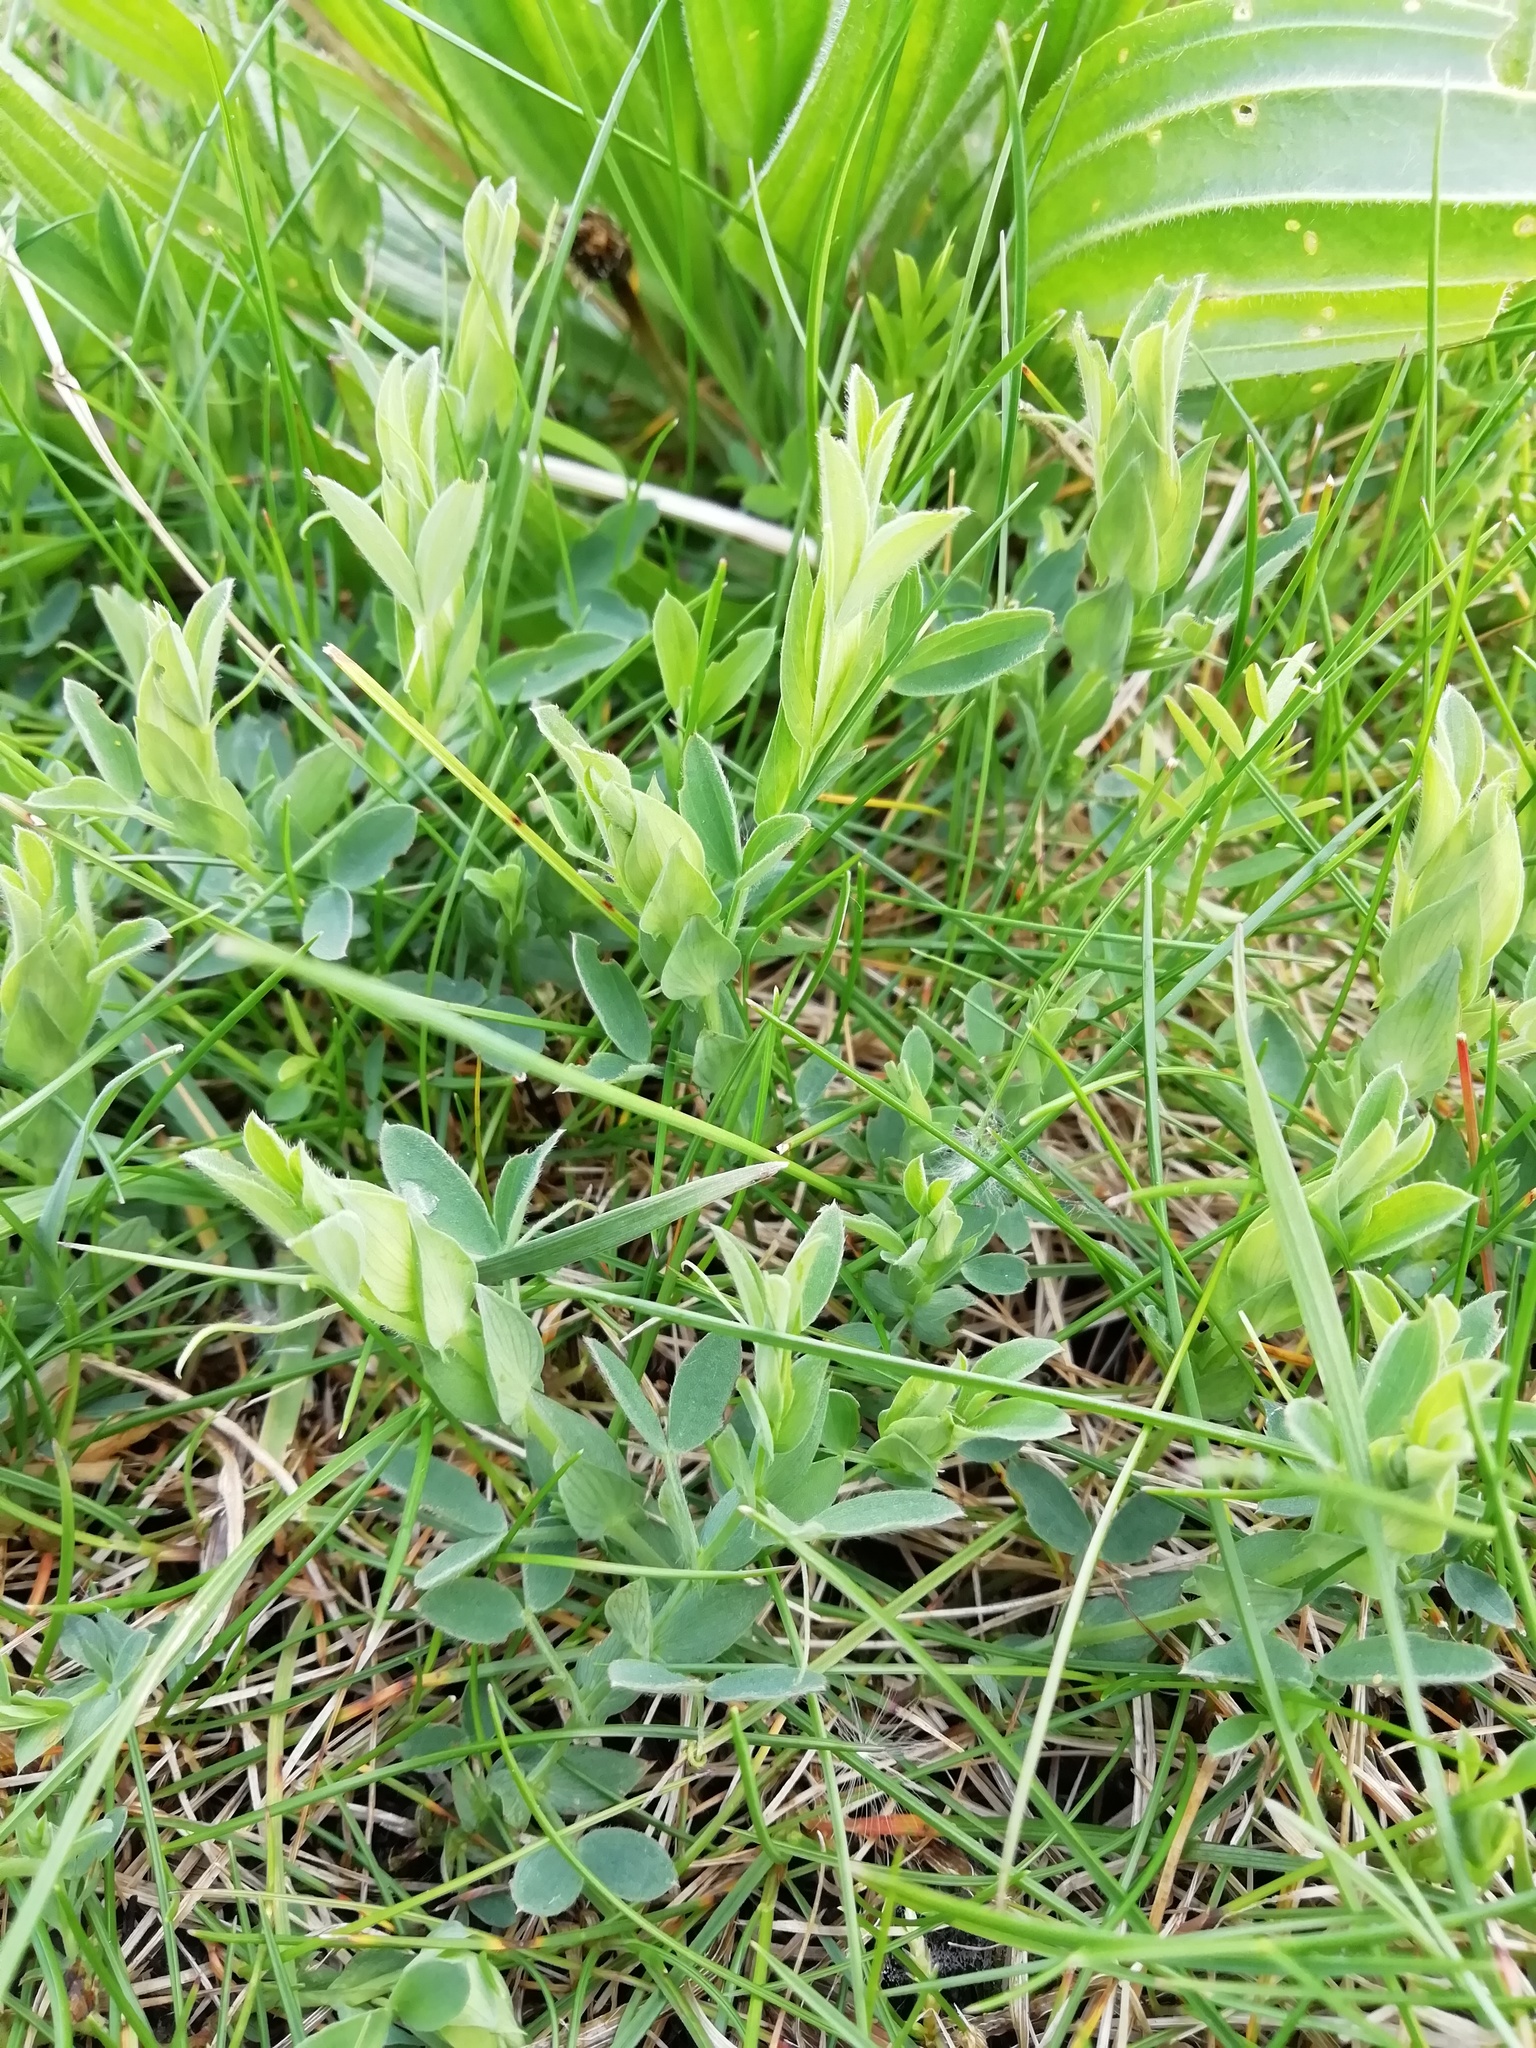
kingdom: Plantae
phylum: Tracheophyta
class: Magnoliopsida
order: Fabales
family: Fabaceae
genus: Lathyrus
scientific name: Lathyrus pratensis
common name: Meadow vetchling
